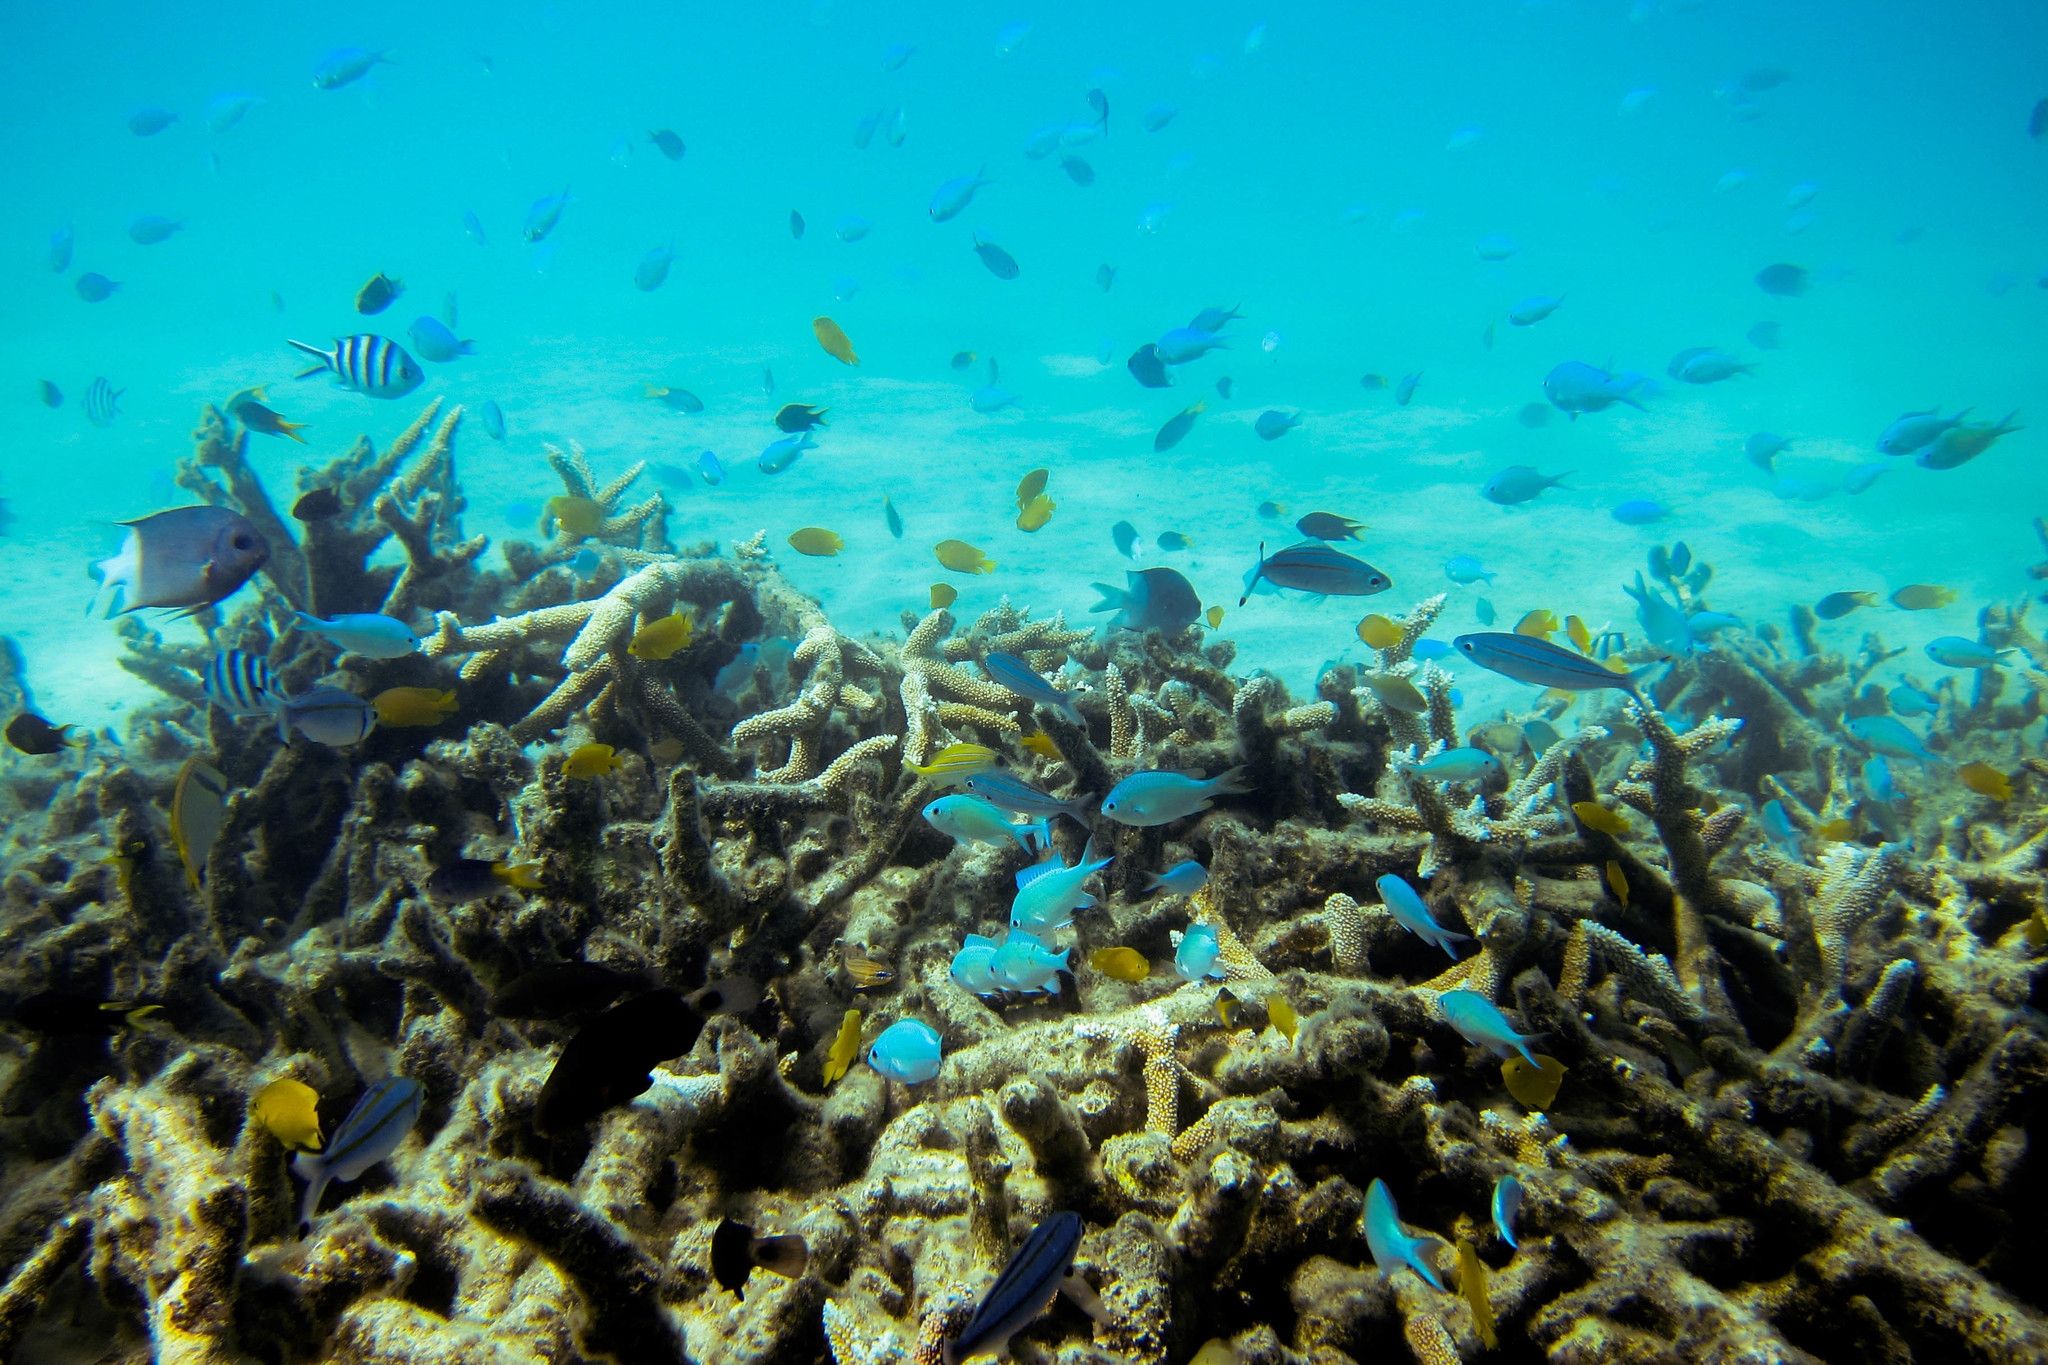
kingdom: Animalia
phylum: Chordata
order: Perciformes
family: Caesionidae
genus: Pterocaesio
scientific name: Pterocaesio digramma
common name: Double-lined fusilier
